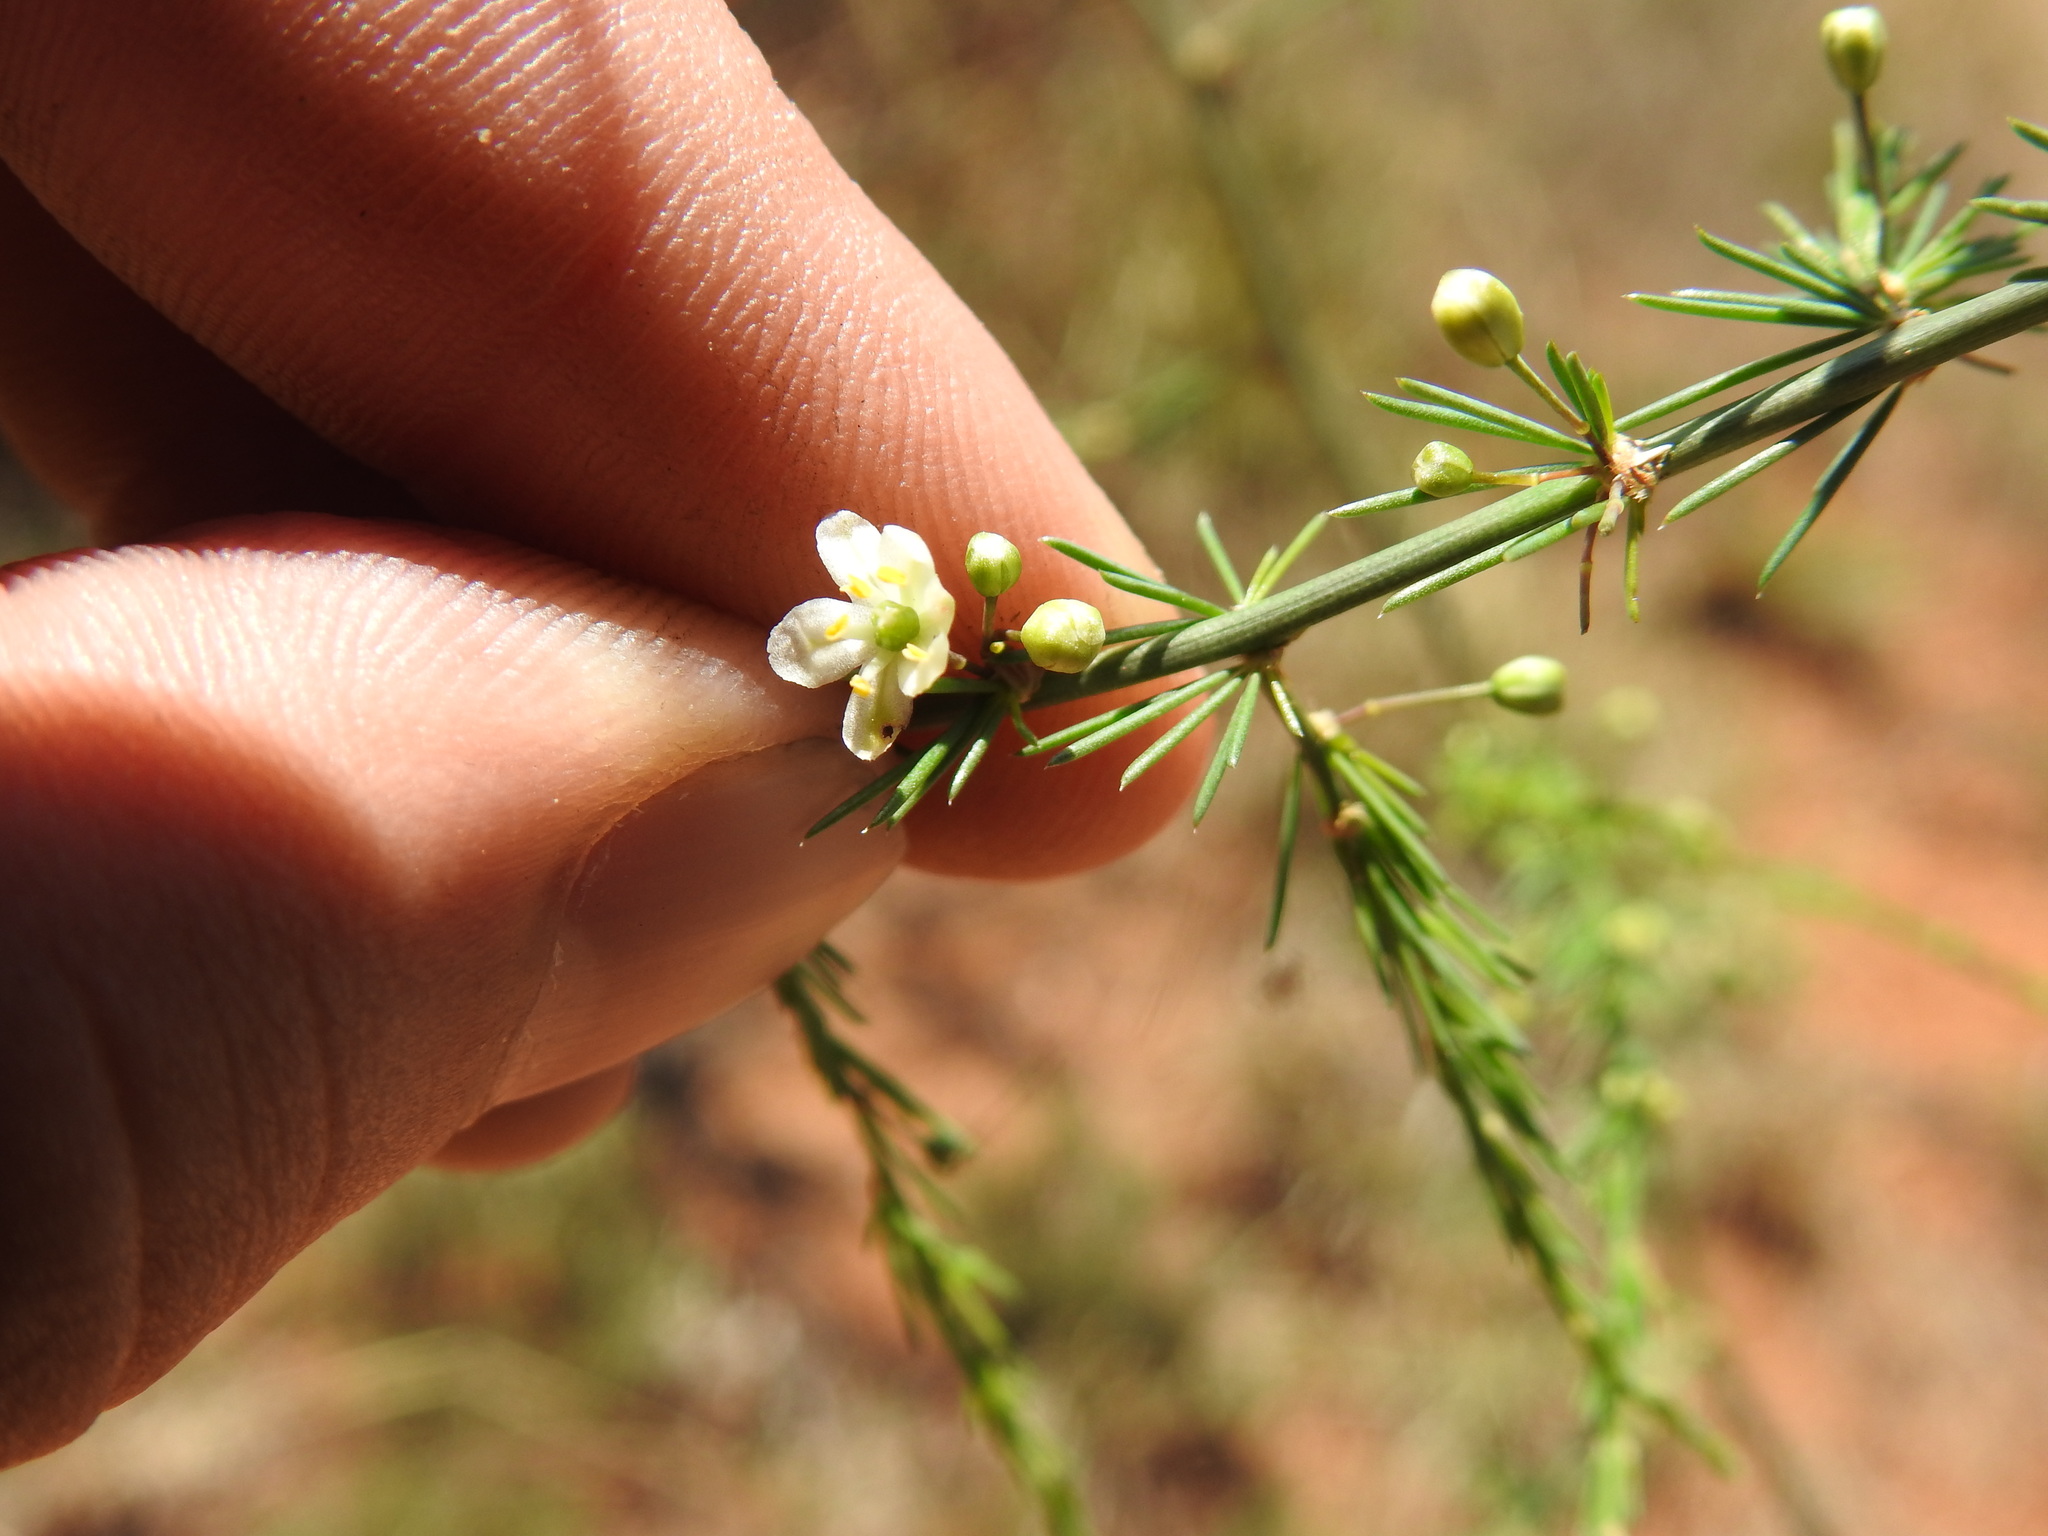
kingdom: Plantae
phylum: Tracheophyta
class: Liliopsida
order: Asparagales
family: Asparagaceae
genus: Asparagus
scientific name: Asparagus africanus
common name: Asparagus-fern
